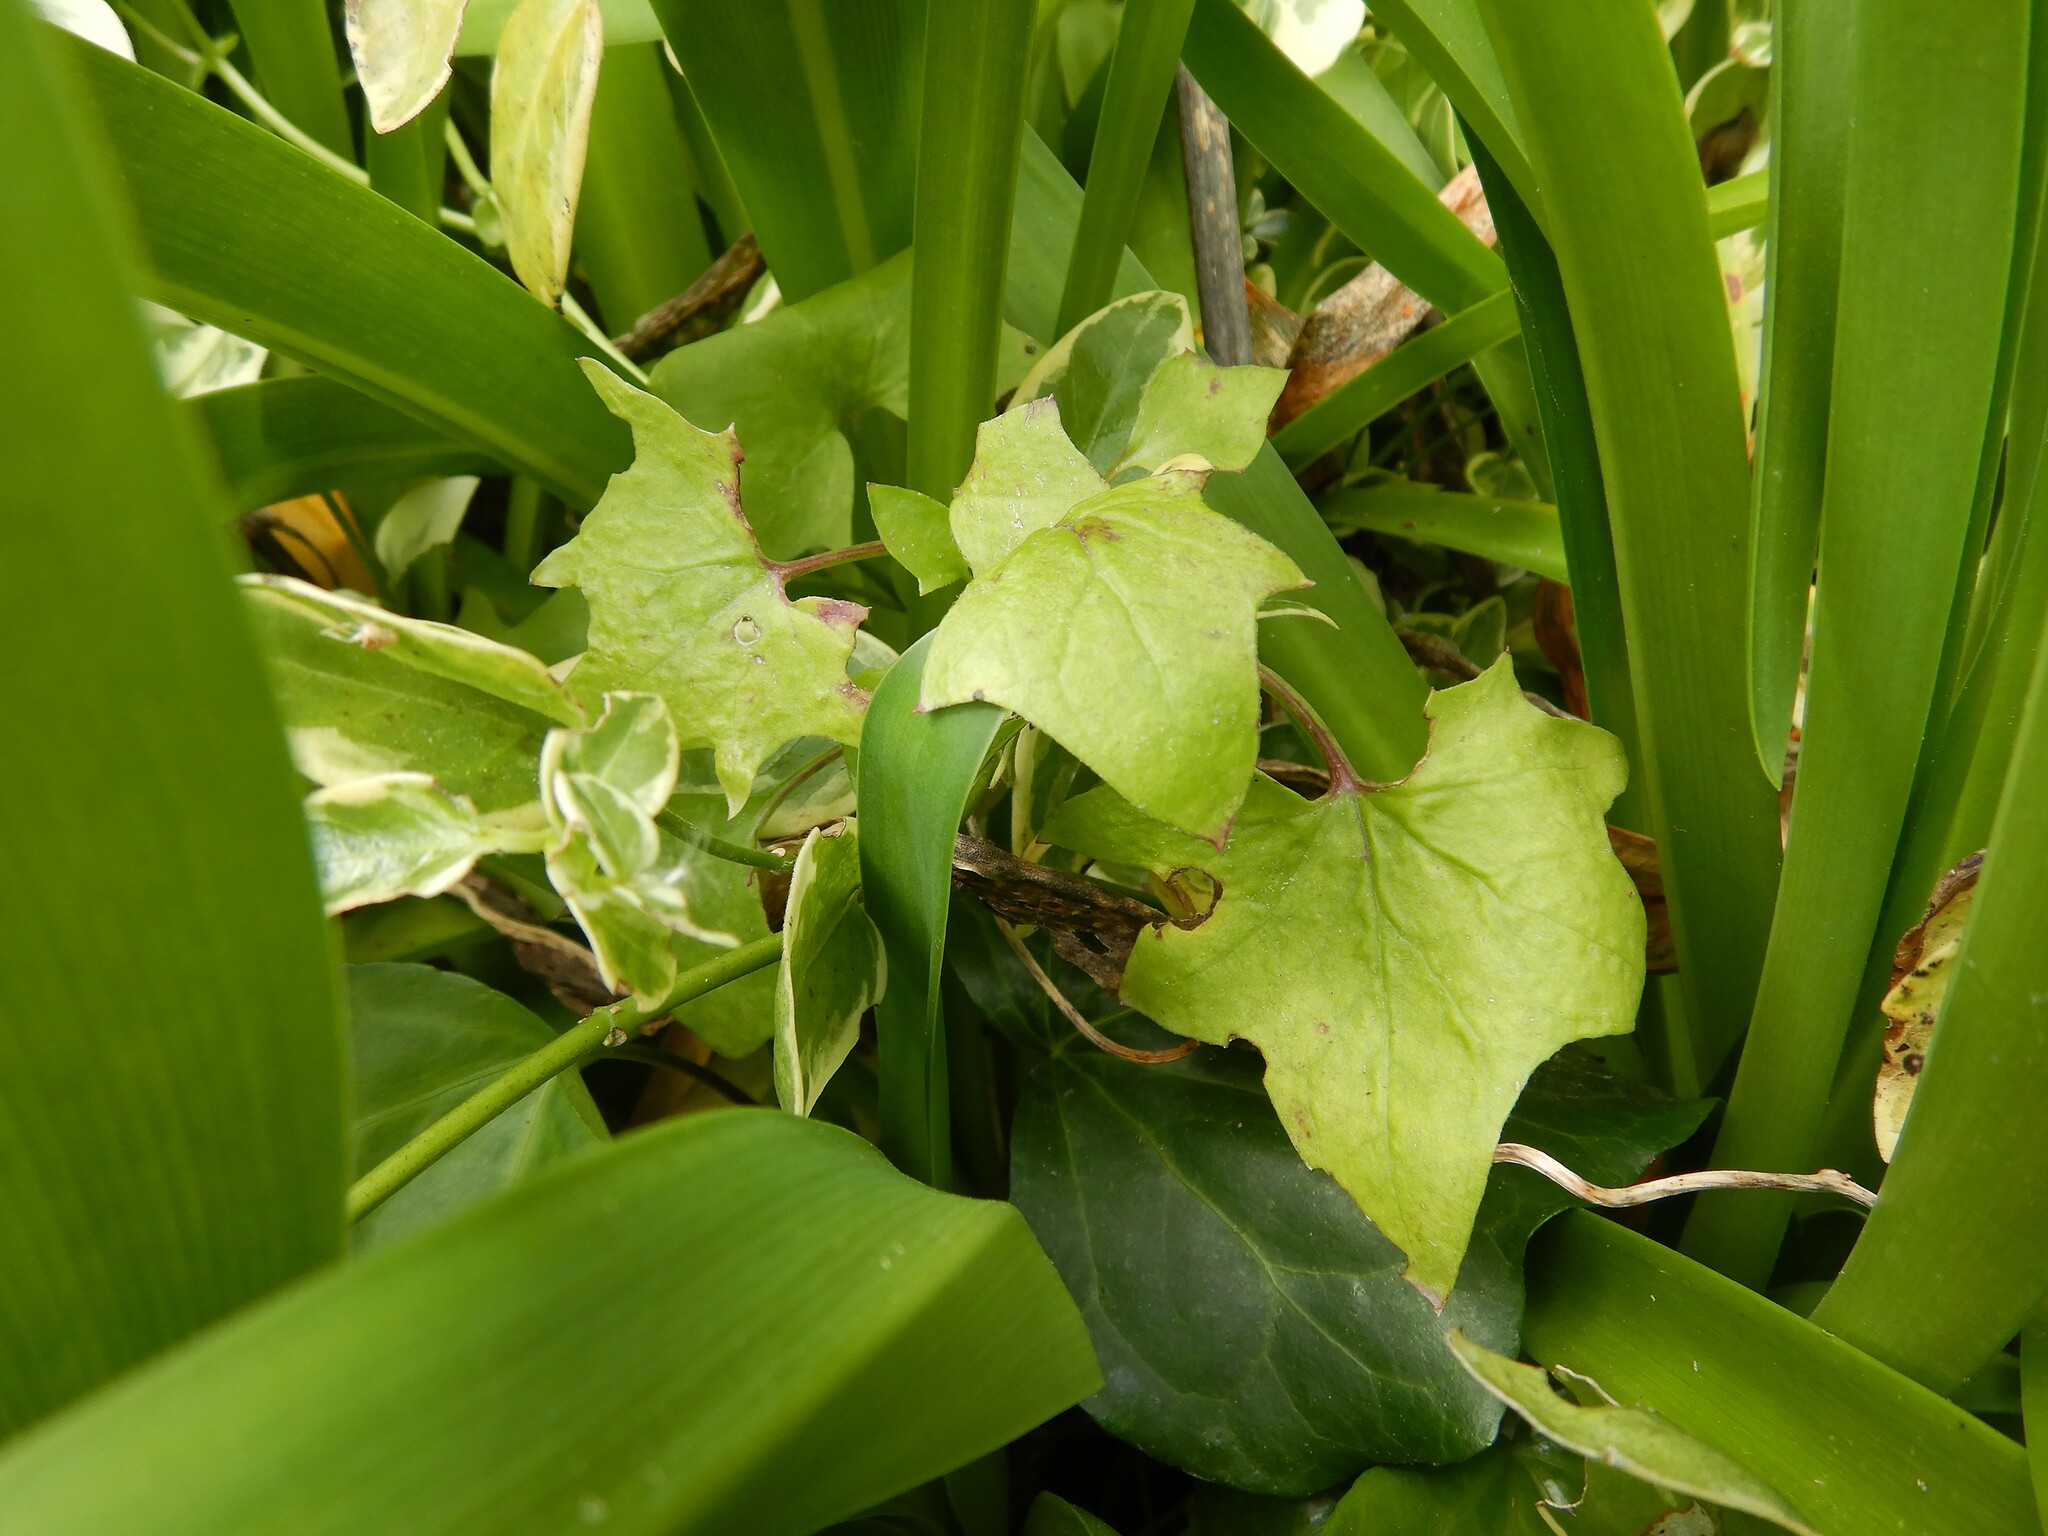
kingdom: Plantae
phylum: Tracheophyta
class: Magnoliopsida
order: Asterales
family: Asteraceae
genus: Delairea
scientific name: Delairea odorata
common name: Cape-ivy
